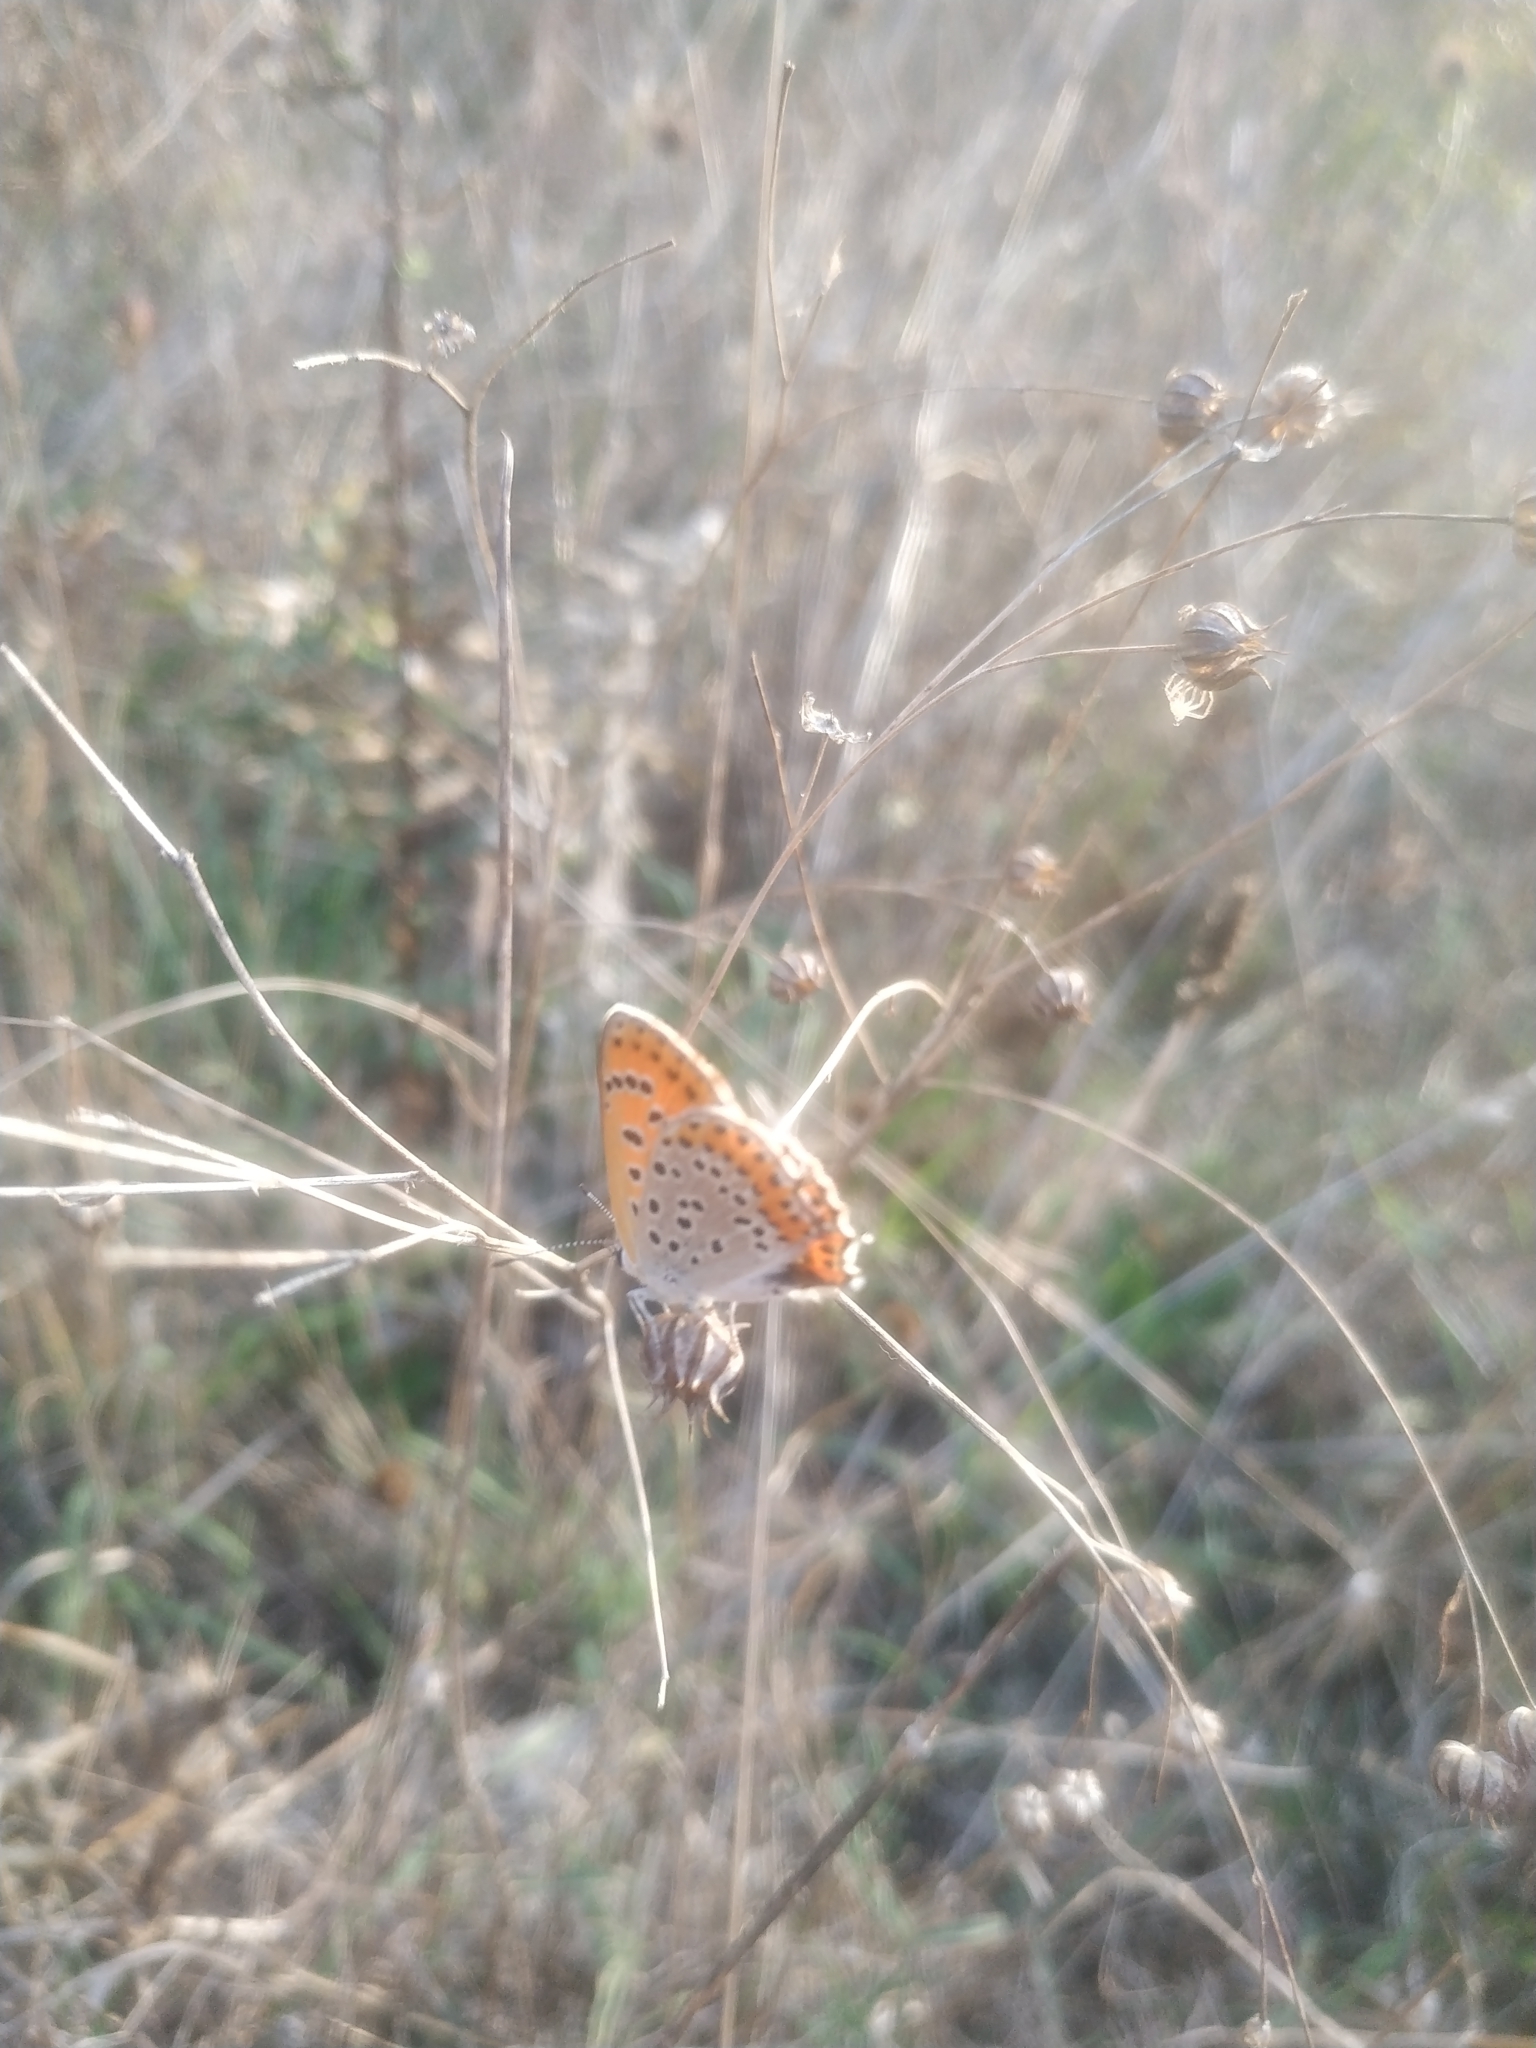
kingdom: Animalia
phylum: Arthropoda
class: Insecta
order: Lepidoptera
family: Lycaenidae
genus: Thersamonia
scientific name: Thersamonia thersamon
